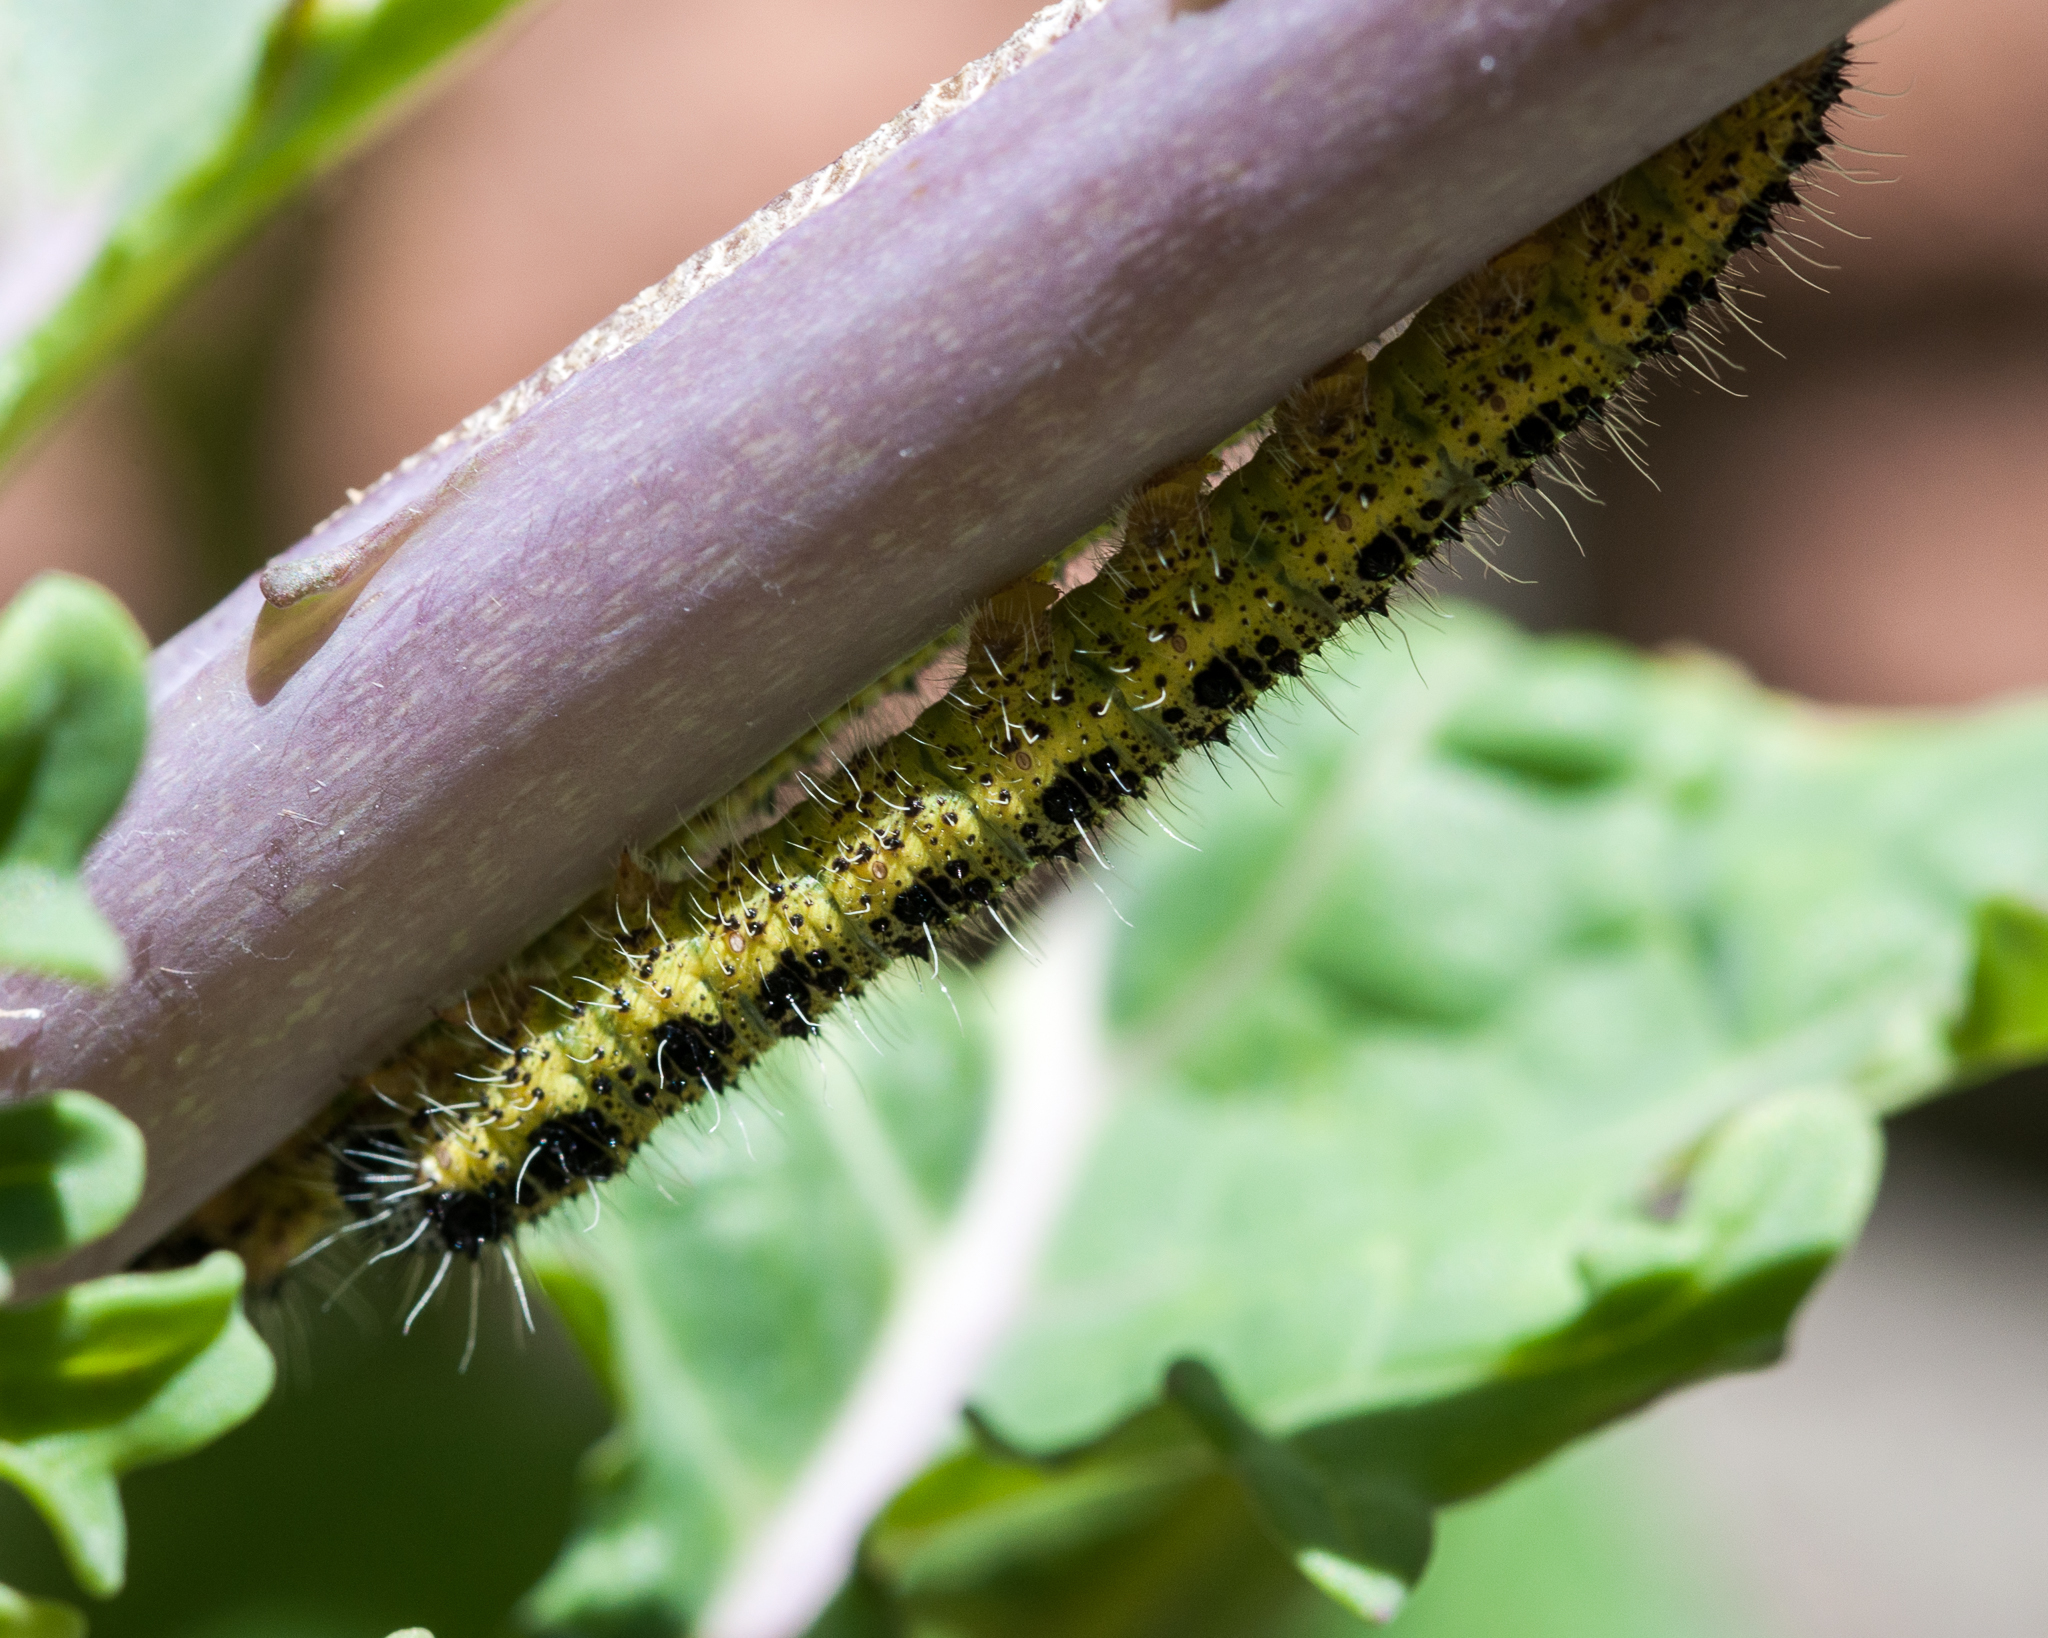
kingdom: Animalia
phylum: Arthropoda
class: Insecta
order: Lepidoptera
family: Pieridae
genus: Pieris
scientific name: Pieris brassicae
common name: Large white
